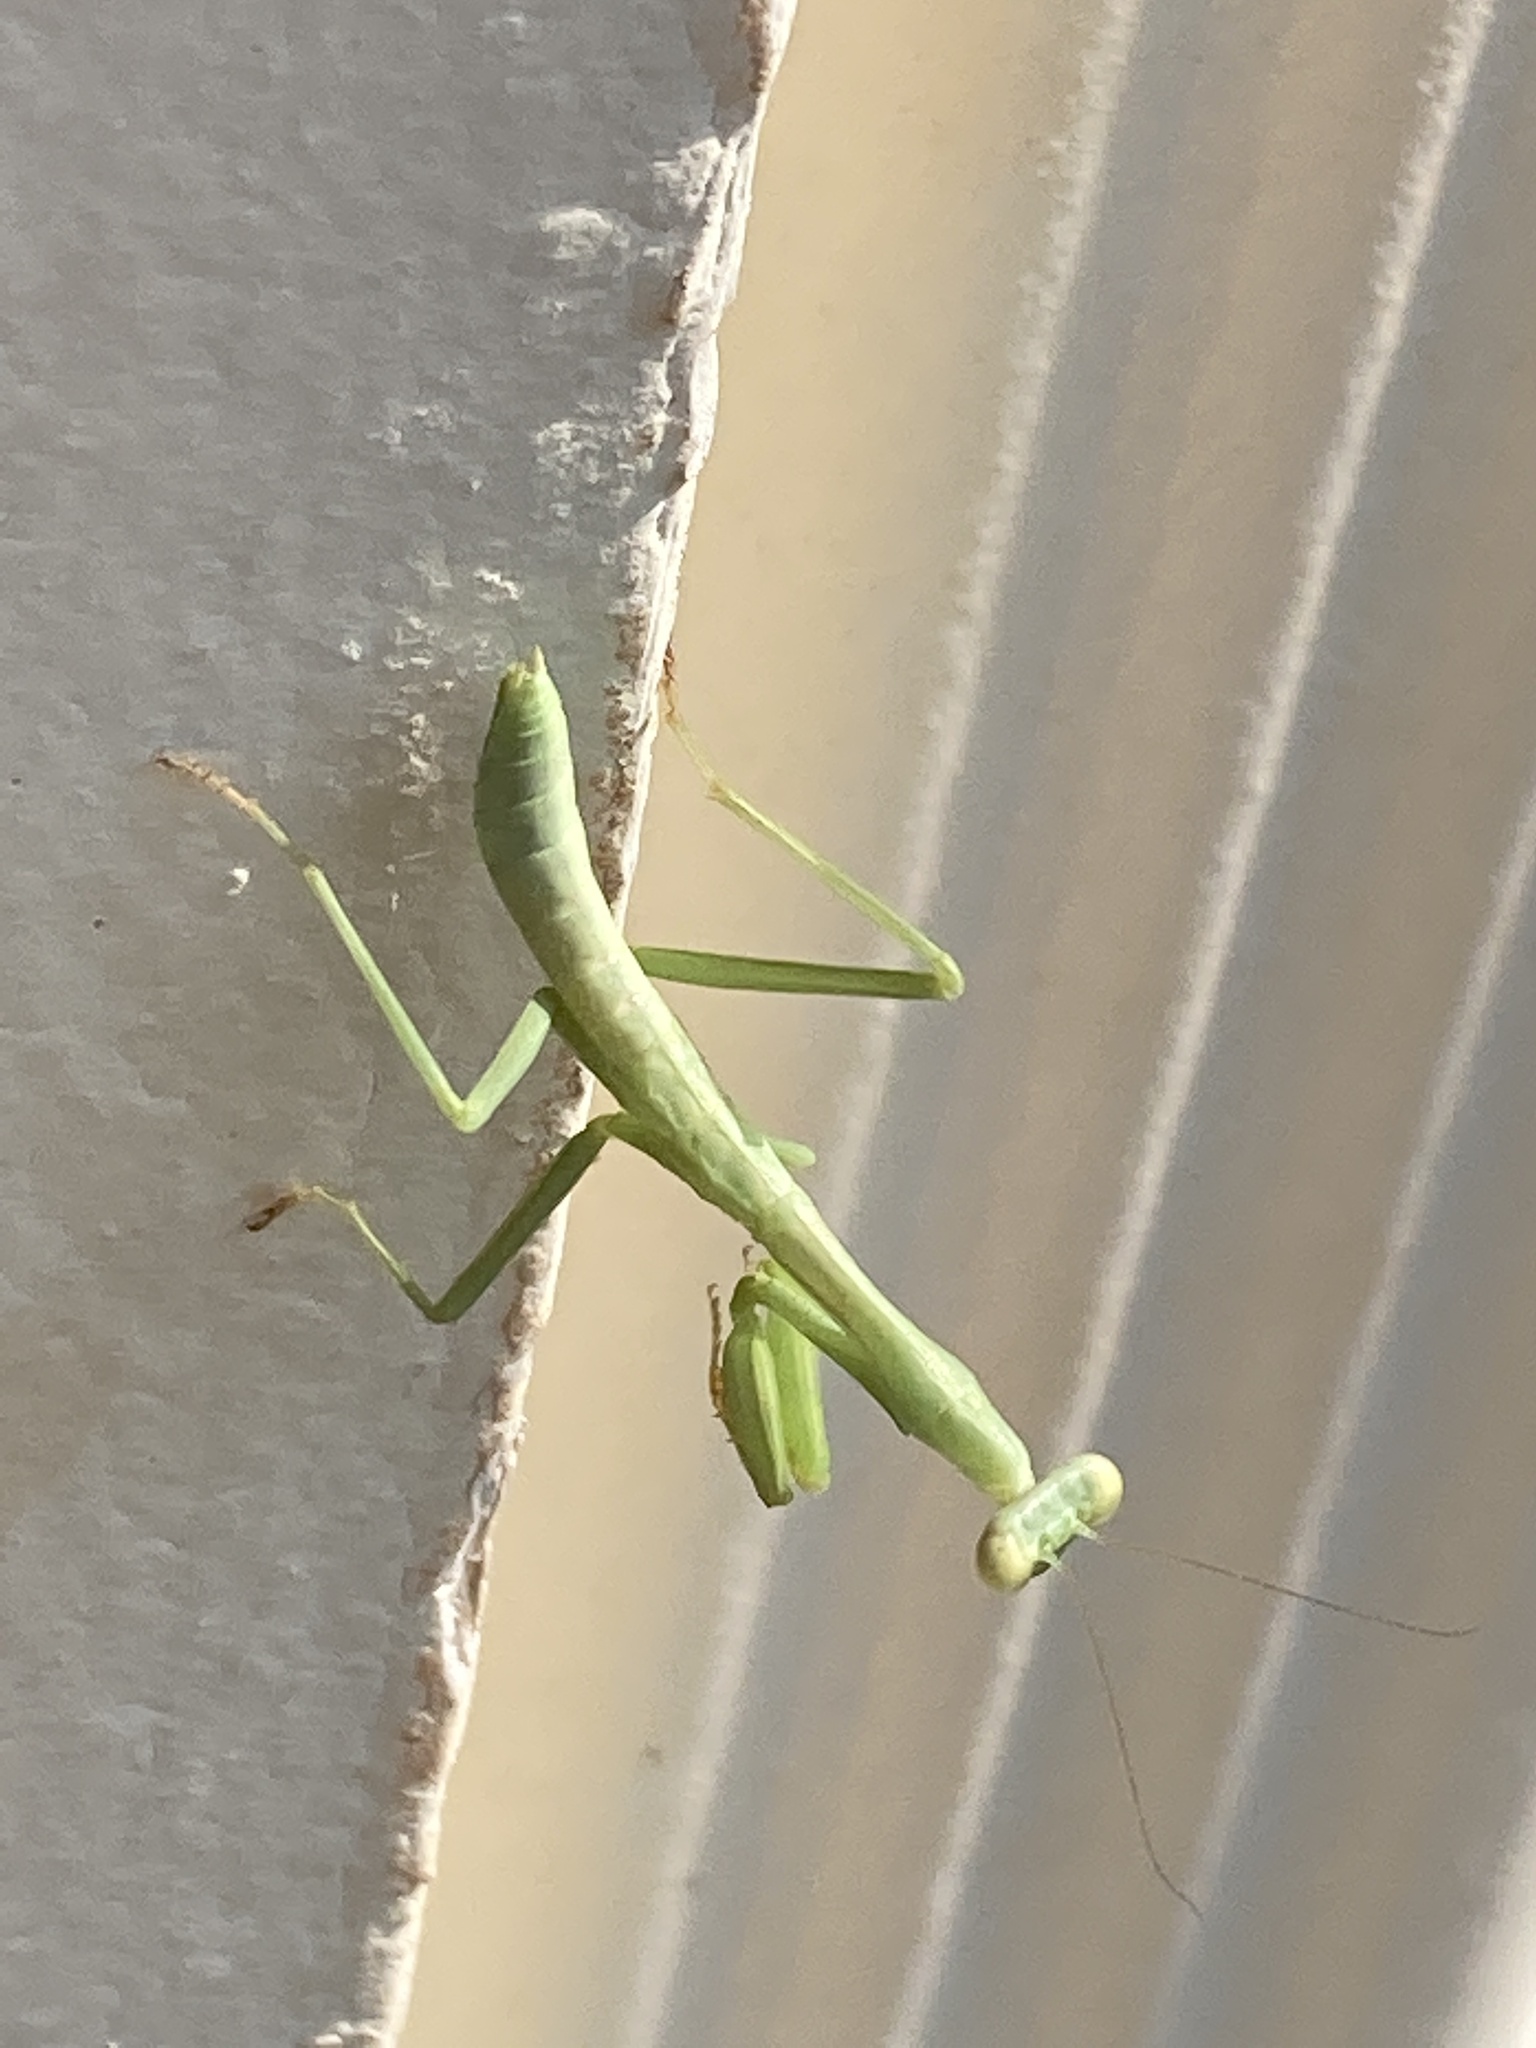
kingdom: Animalia
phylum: Arthropoda
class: Insecta
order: Mantodea
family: Mantidae
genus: Stagmomantis
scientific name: Stagmomantis carolina
